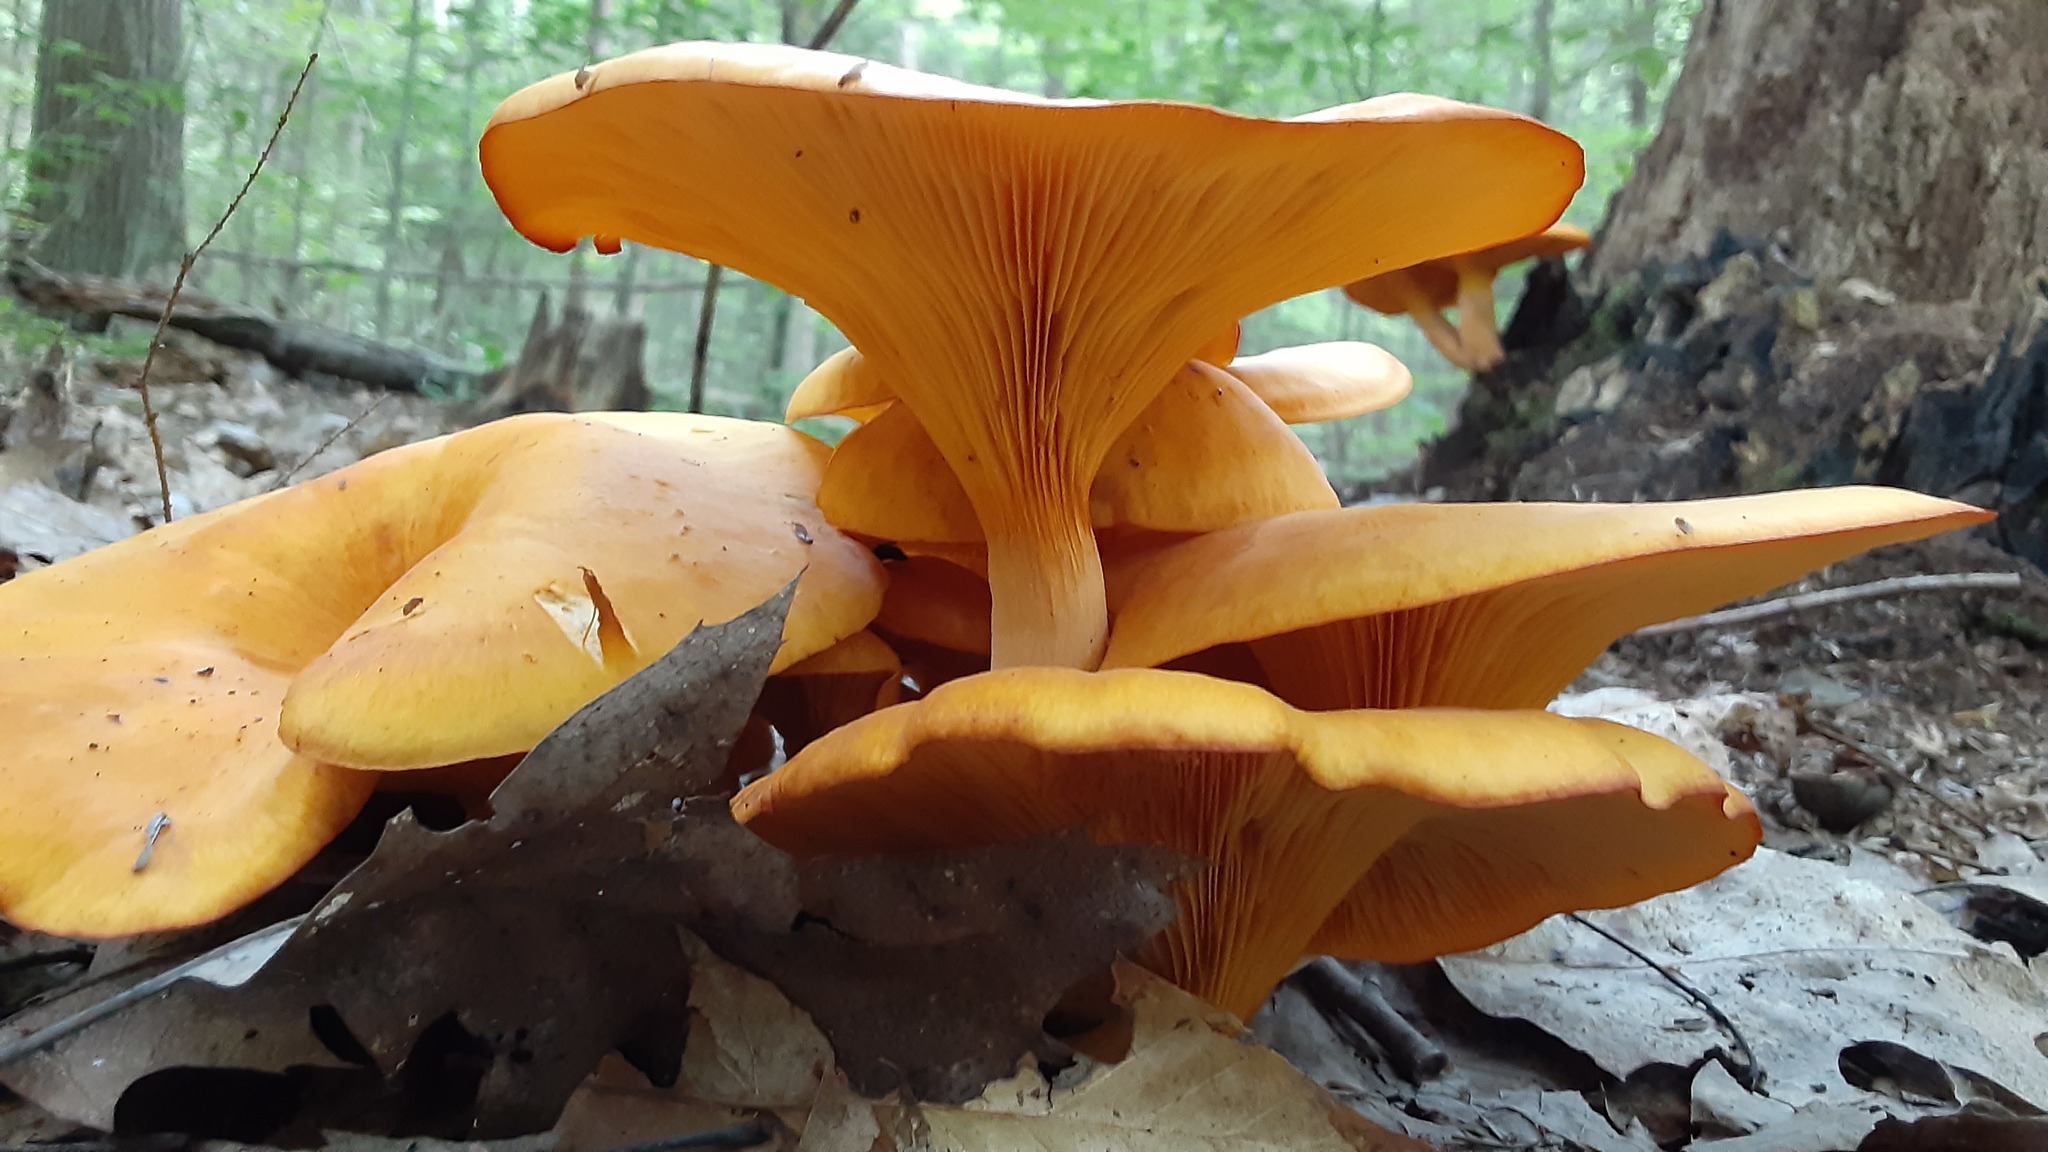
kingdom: Fungi
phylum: Basidiomycota
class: Agaricomycetes
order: Agaricales
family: Omphalotaceae
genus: Omphalotus
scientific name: Omphalotus illudens
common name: Jack o lantern
